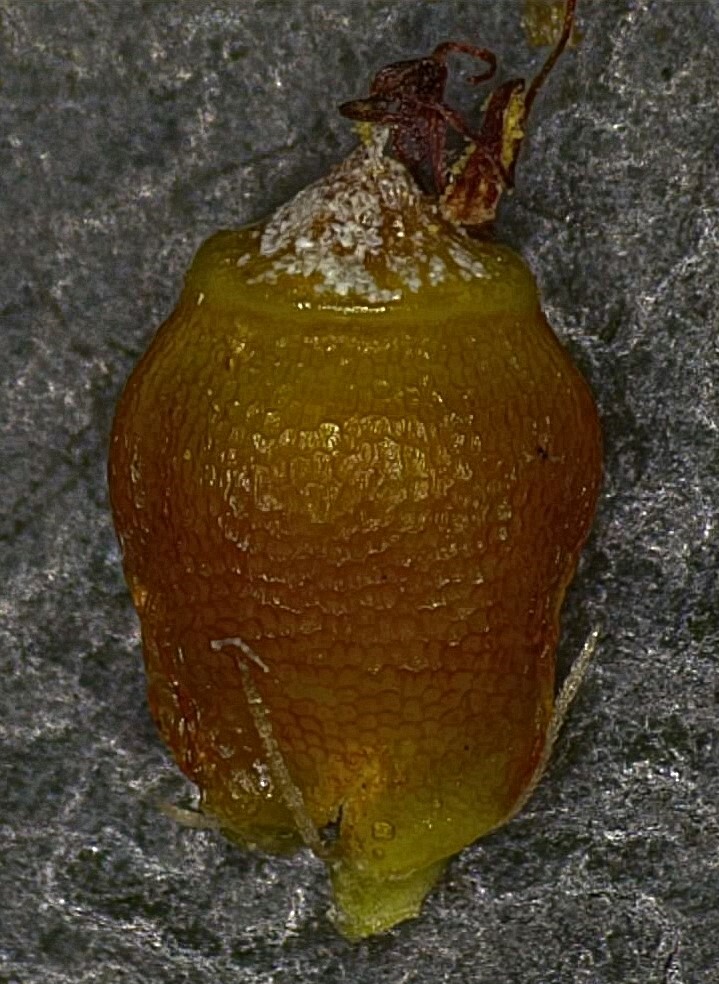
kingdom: Plantae
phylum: Tracheophyta
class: Liliopsida
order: Poales
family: Cyperaceae
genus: Rhynchospora
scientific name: Rhynchospora harveyi
